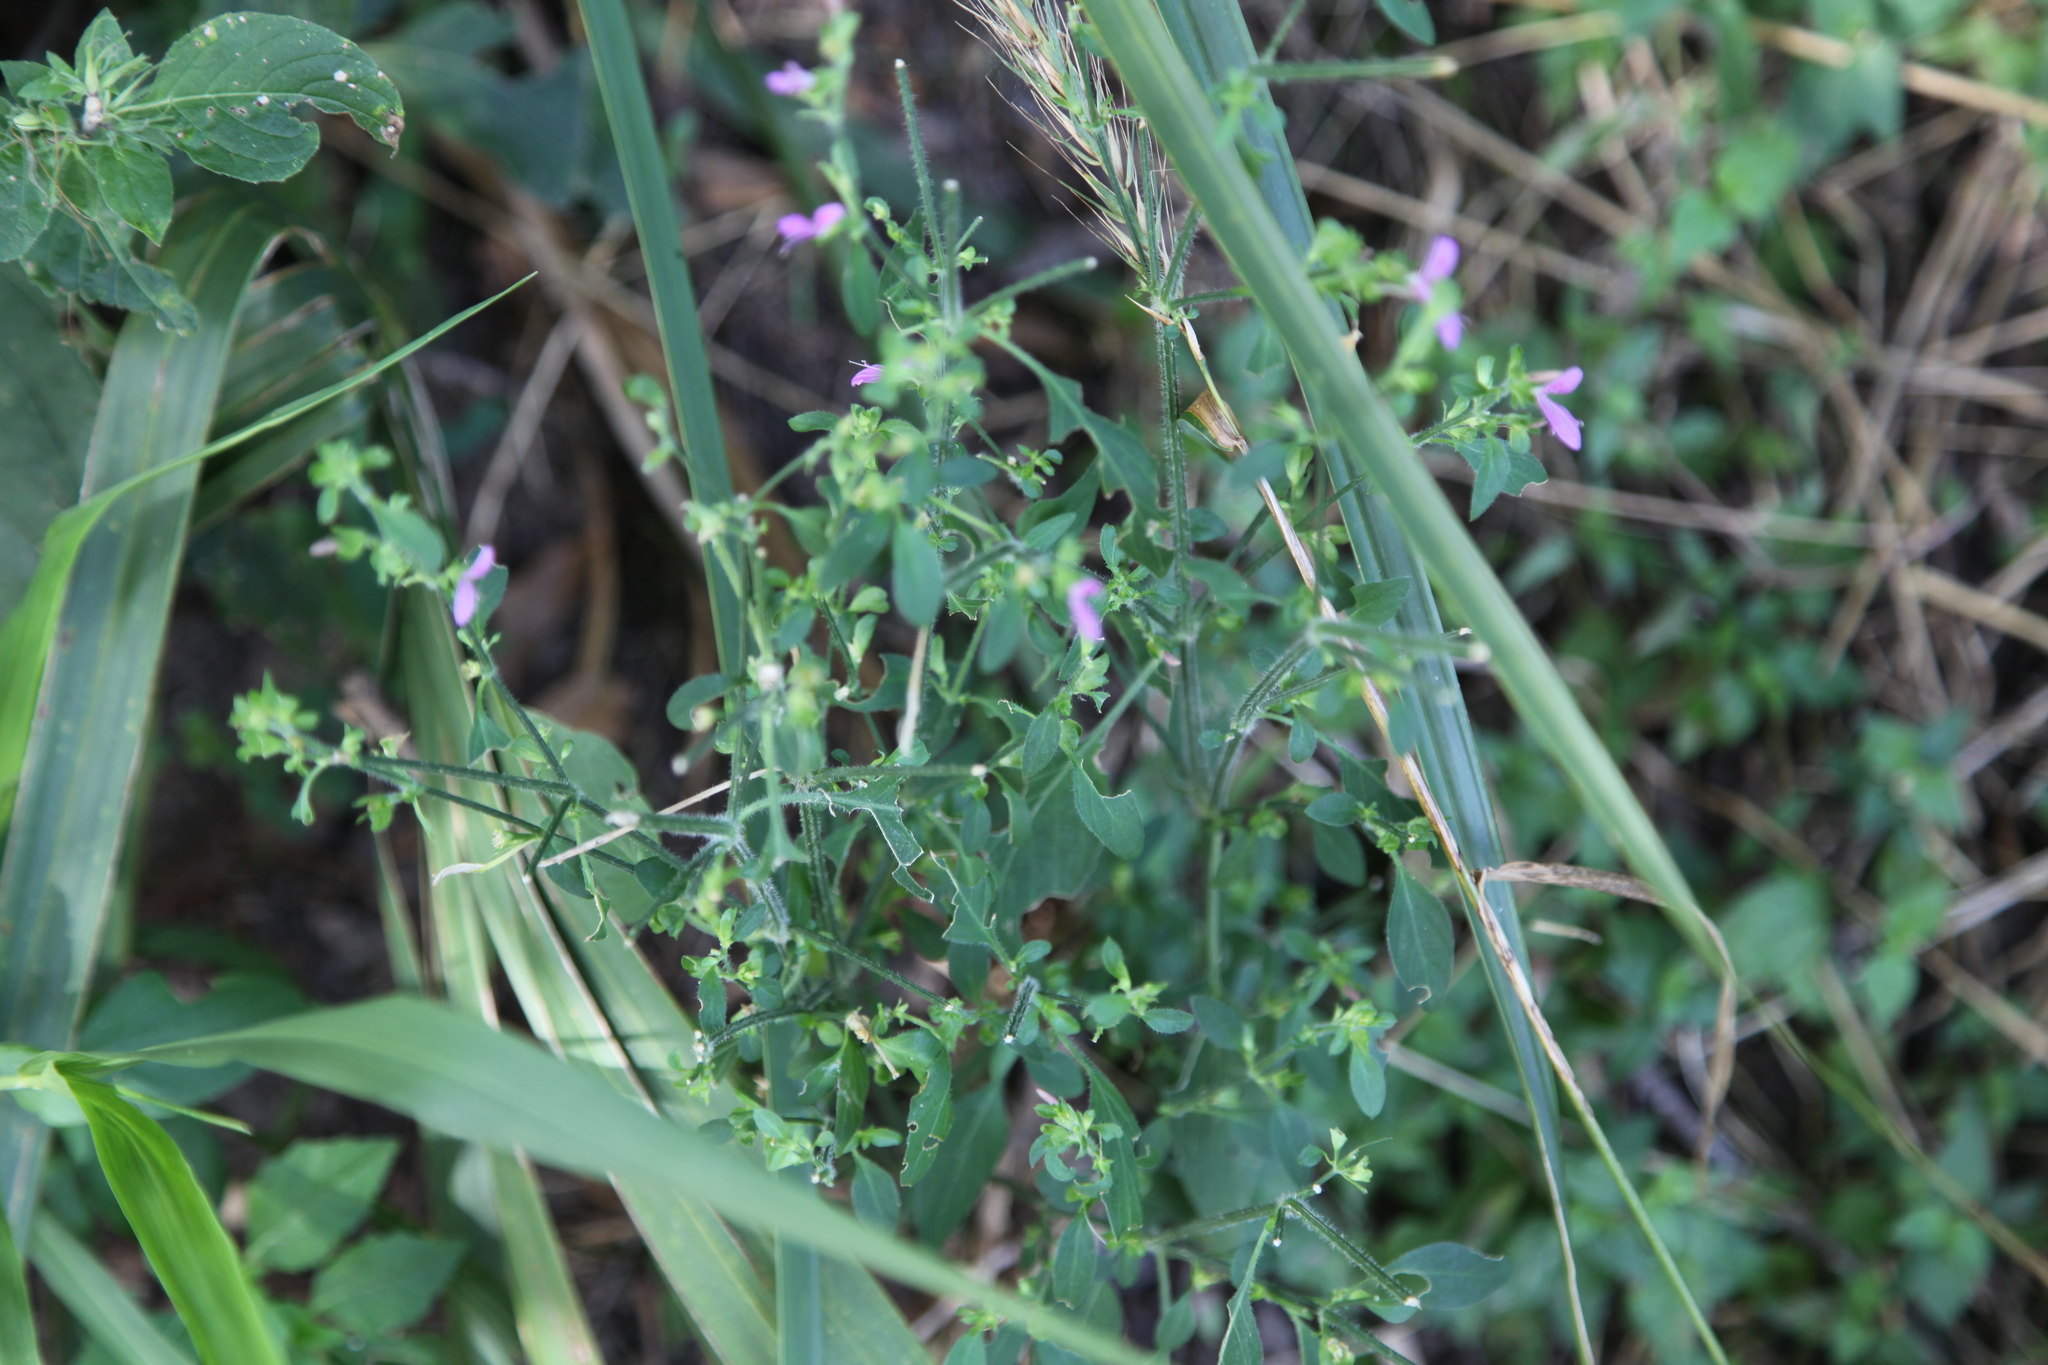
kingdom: Plantae
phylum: Tracheophyta
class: Magnoliopsida
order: Lamiales
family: Acanthaceae
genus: Dicliptera
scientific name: Dicliptera brachiata
